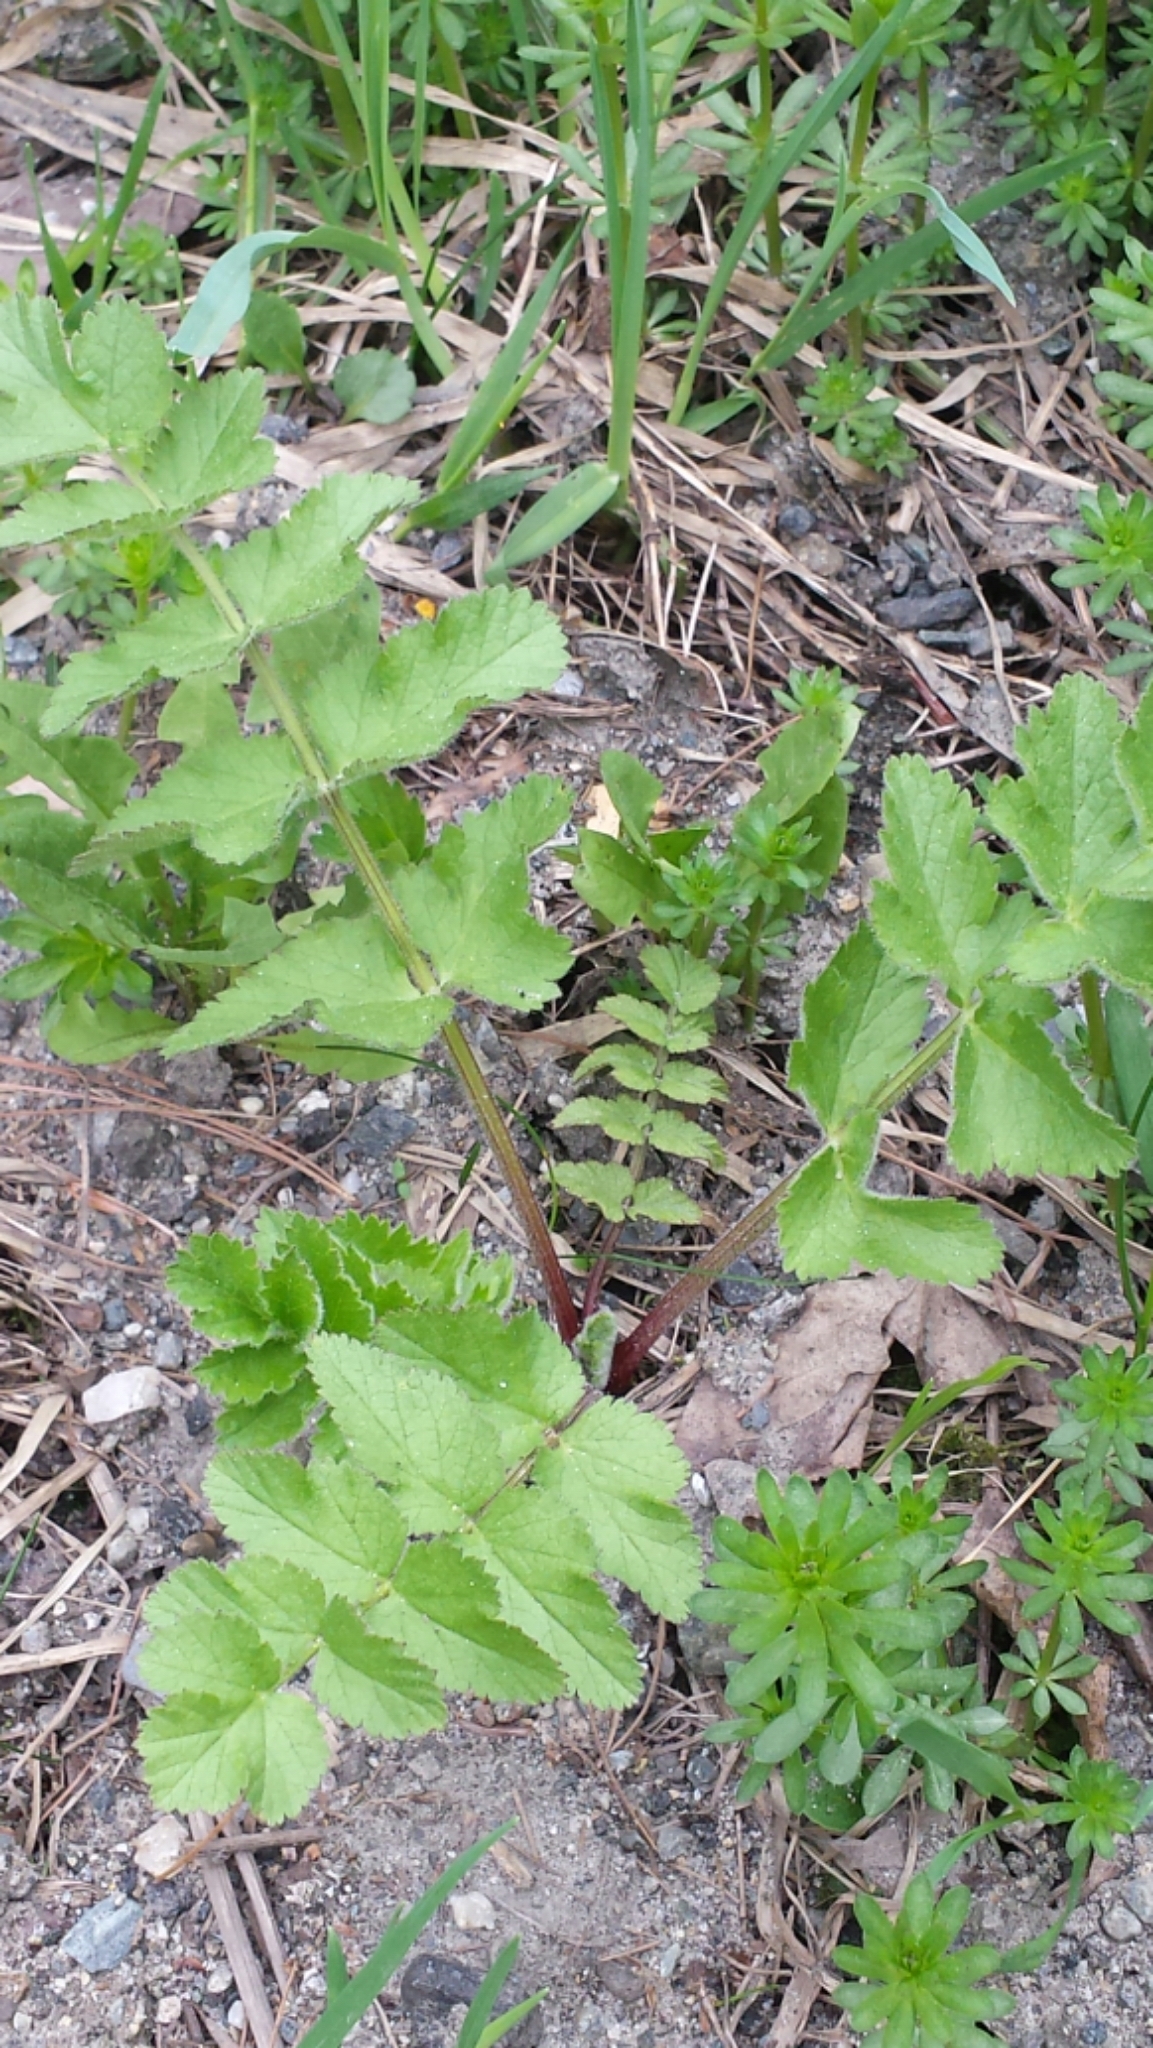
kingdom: Plantae
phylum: Tracheophyta
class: Magnoliopsida
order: Apiales
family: Apiaceae
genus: Pastinaca
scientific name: Pastinaca sativa
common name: Wild parsnip
